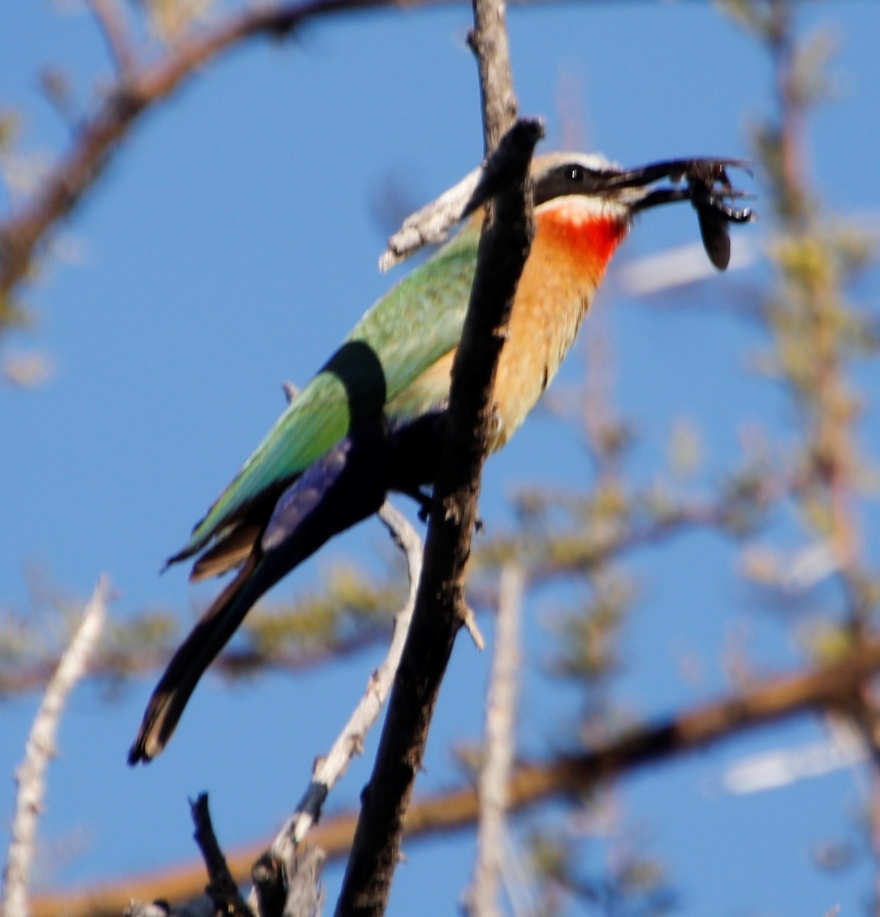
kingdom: Animalia
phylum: Arthropoda
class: Insecta
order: Hymenoptera
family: Eumenidae
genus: Delta
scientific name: Delta emarginatum
